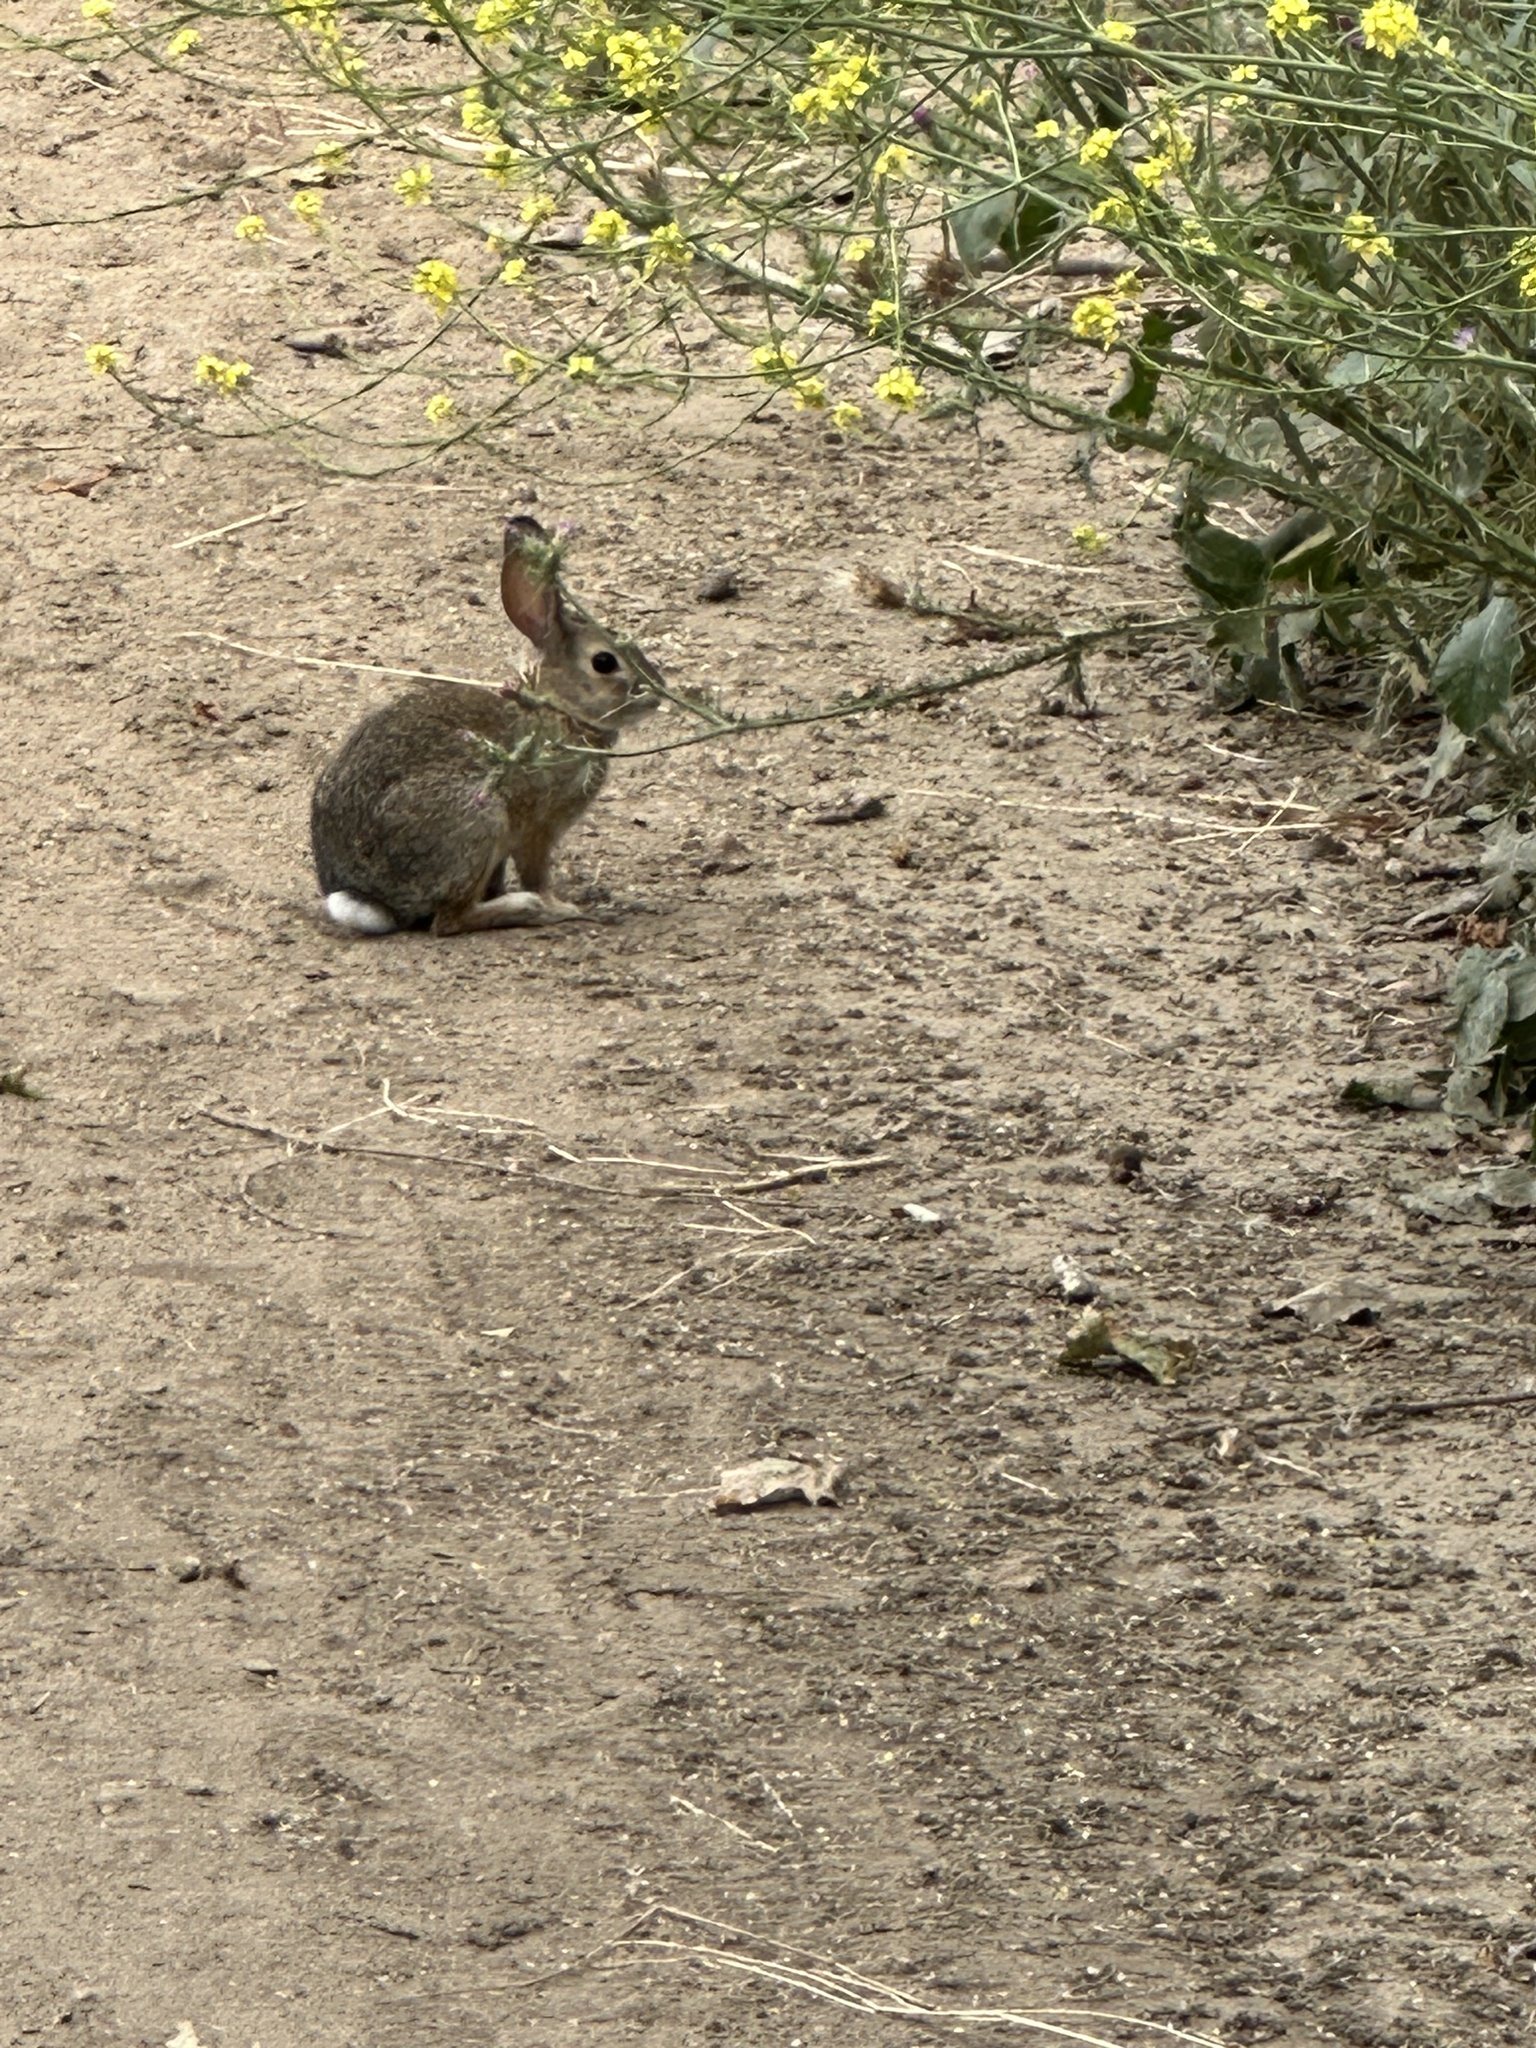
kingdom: Animalia
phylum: Chordata
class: Mammalia
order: Lagomorpha
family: Leporidae
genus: Sylvilagus
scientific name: Sylvilagus audubonii
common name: Desert cottontail
